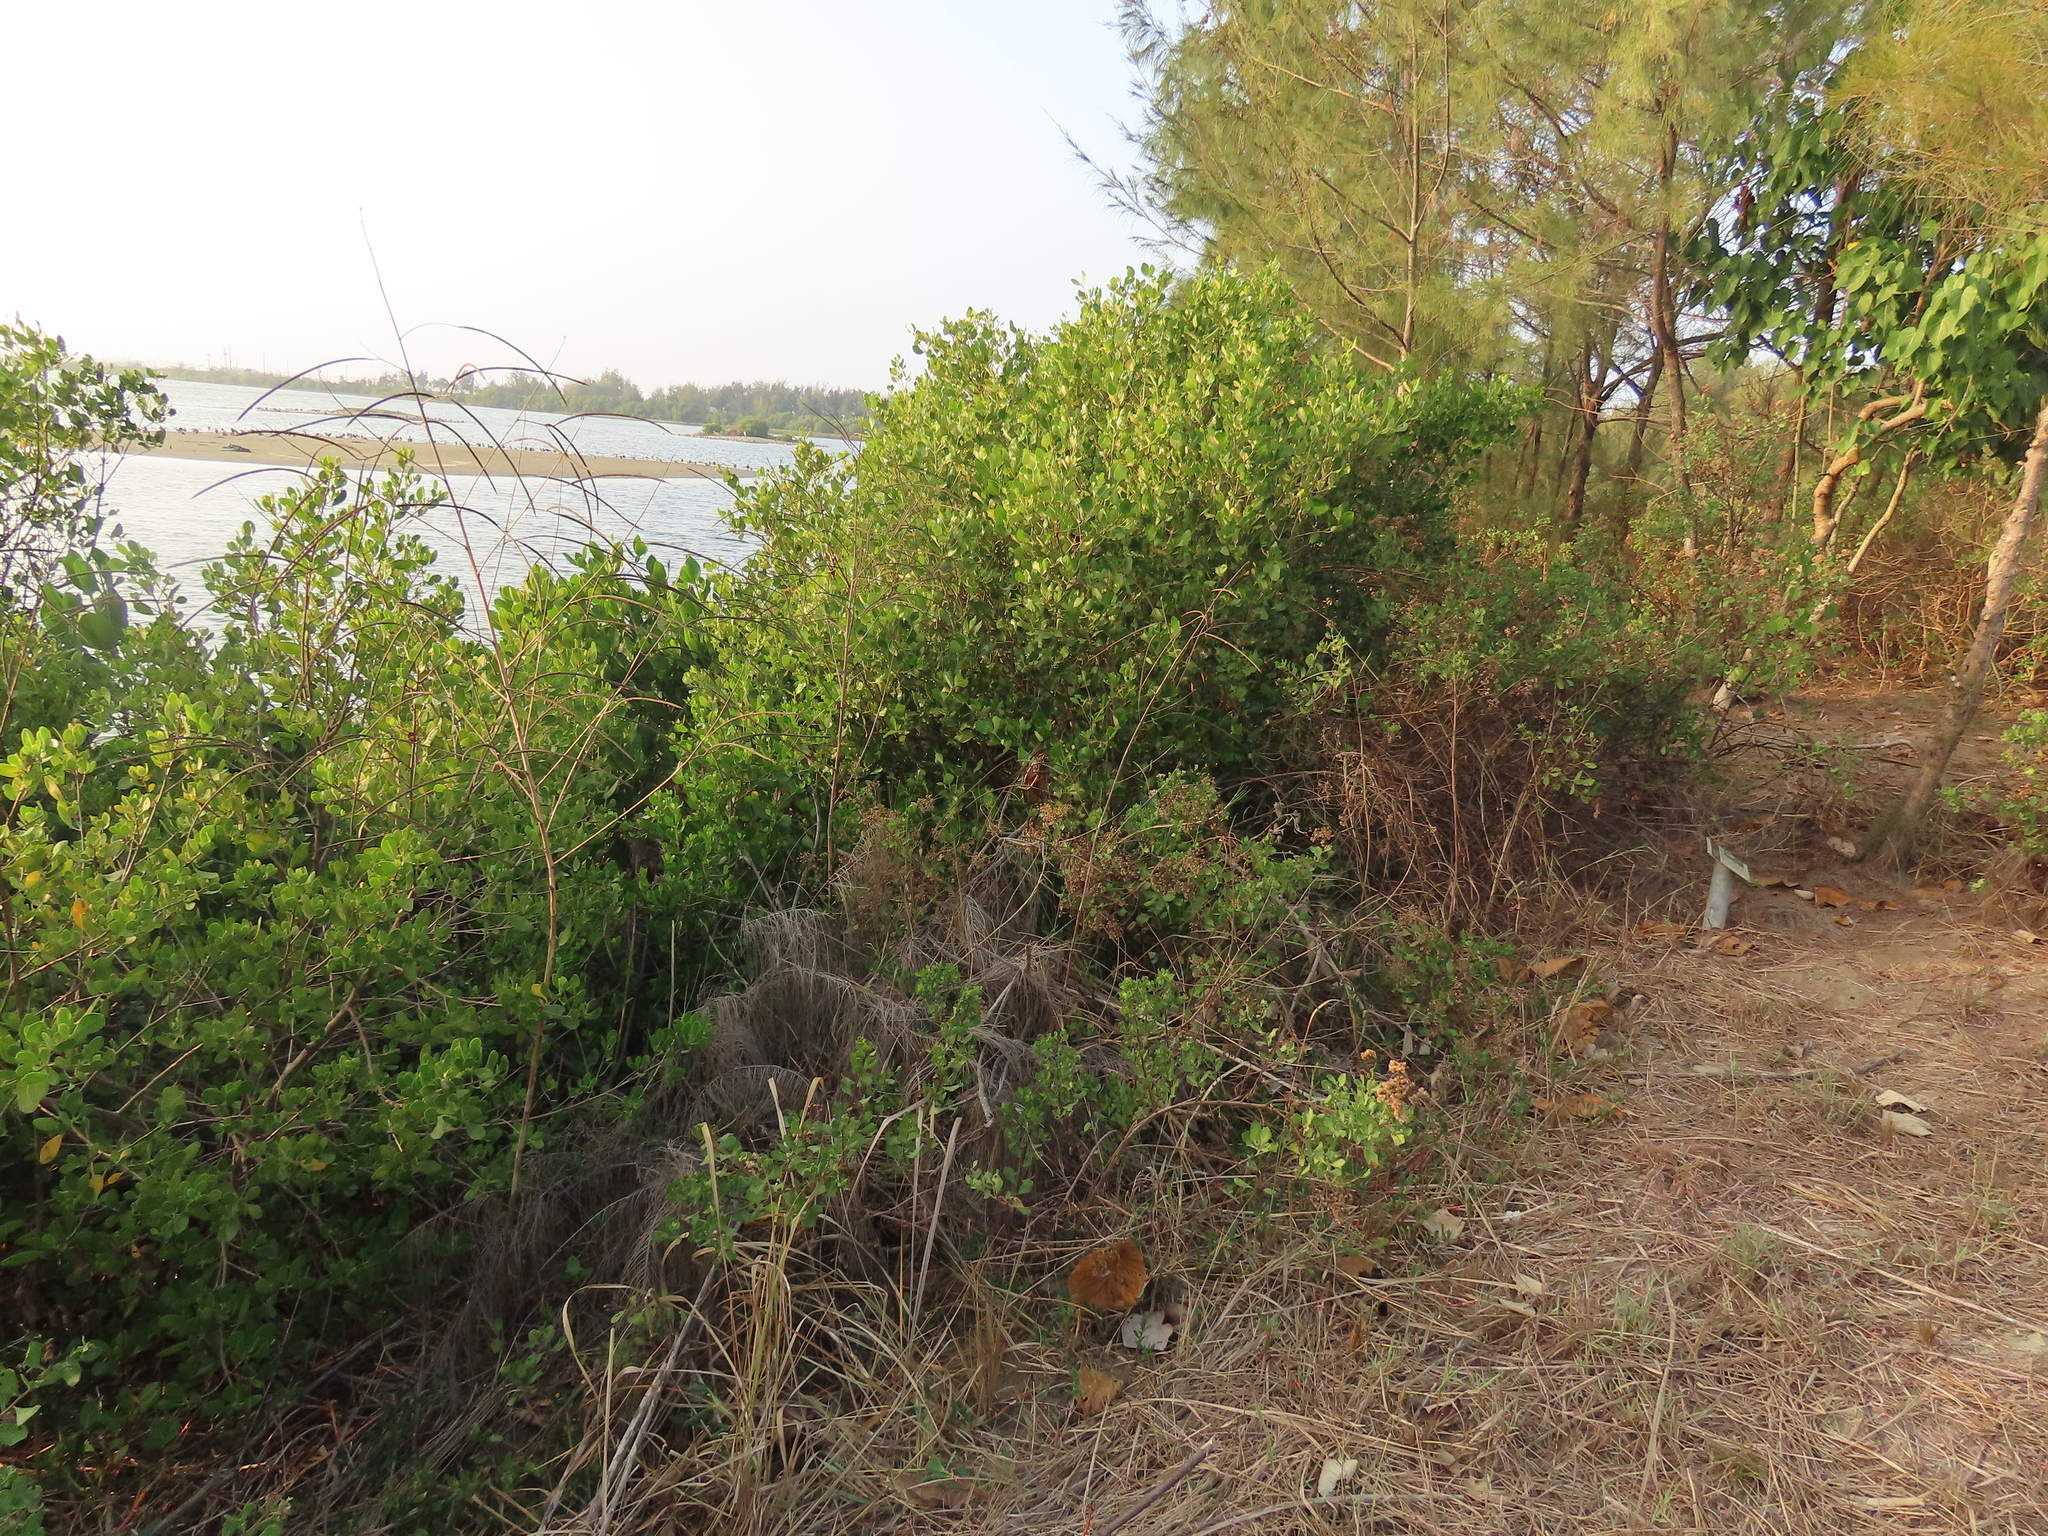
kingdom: Plantae
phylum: Tracheophyta
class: Magnoliopsida
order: Asterales
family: Asteraceae
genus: Pluchea
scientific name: Pluchea indica
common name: Indian fleabane
